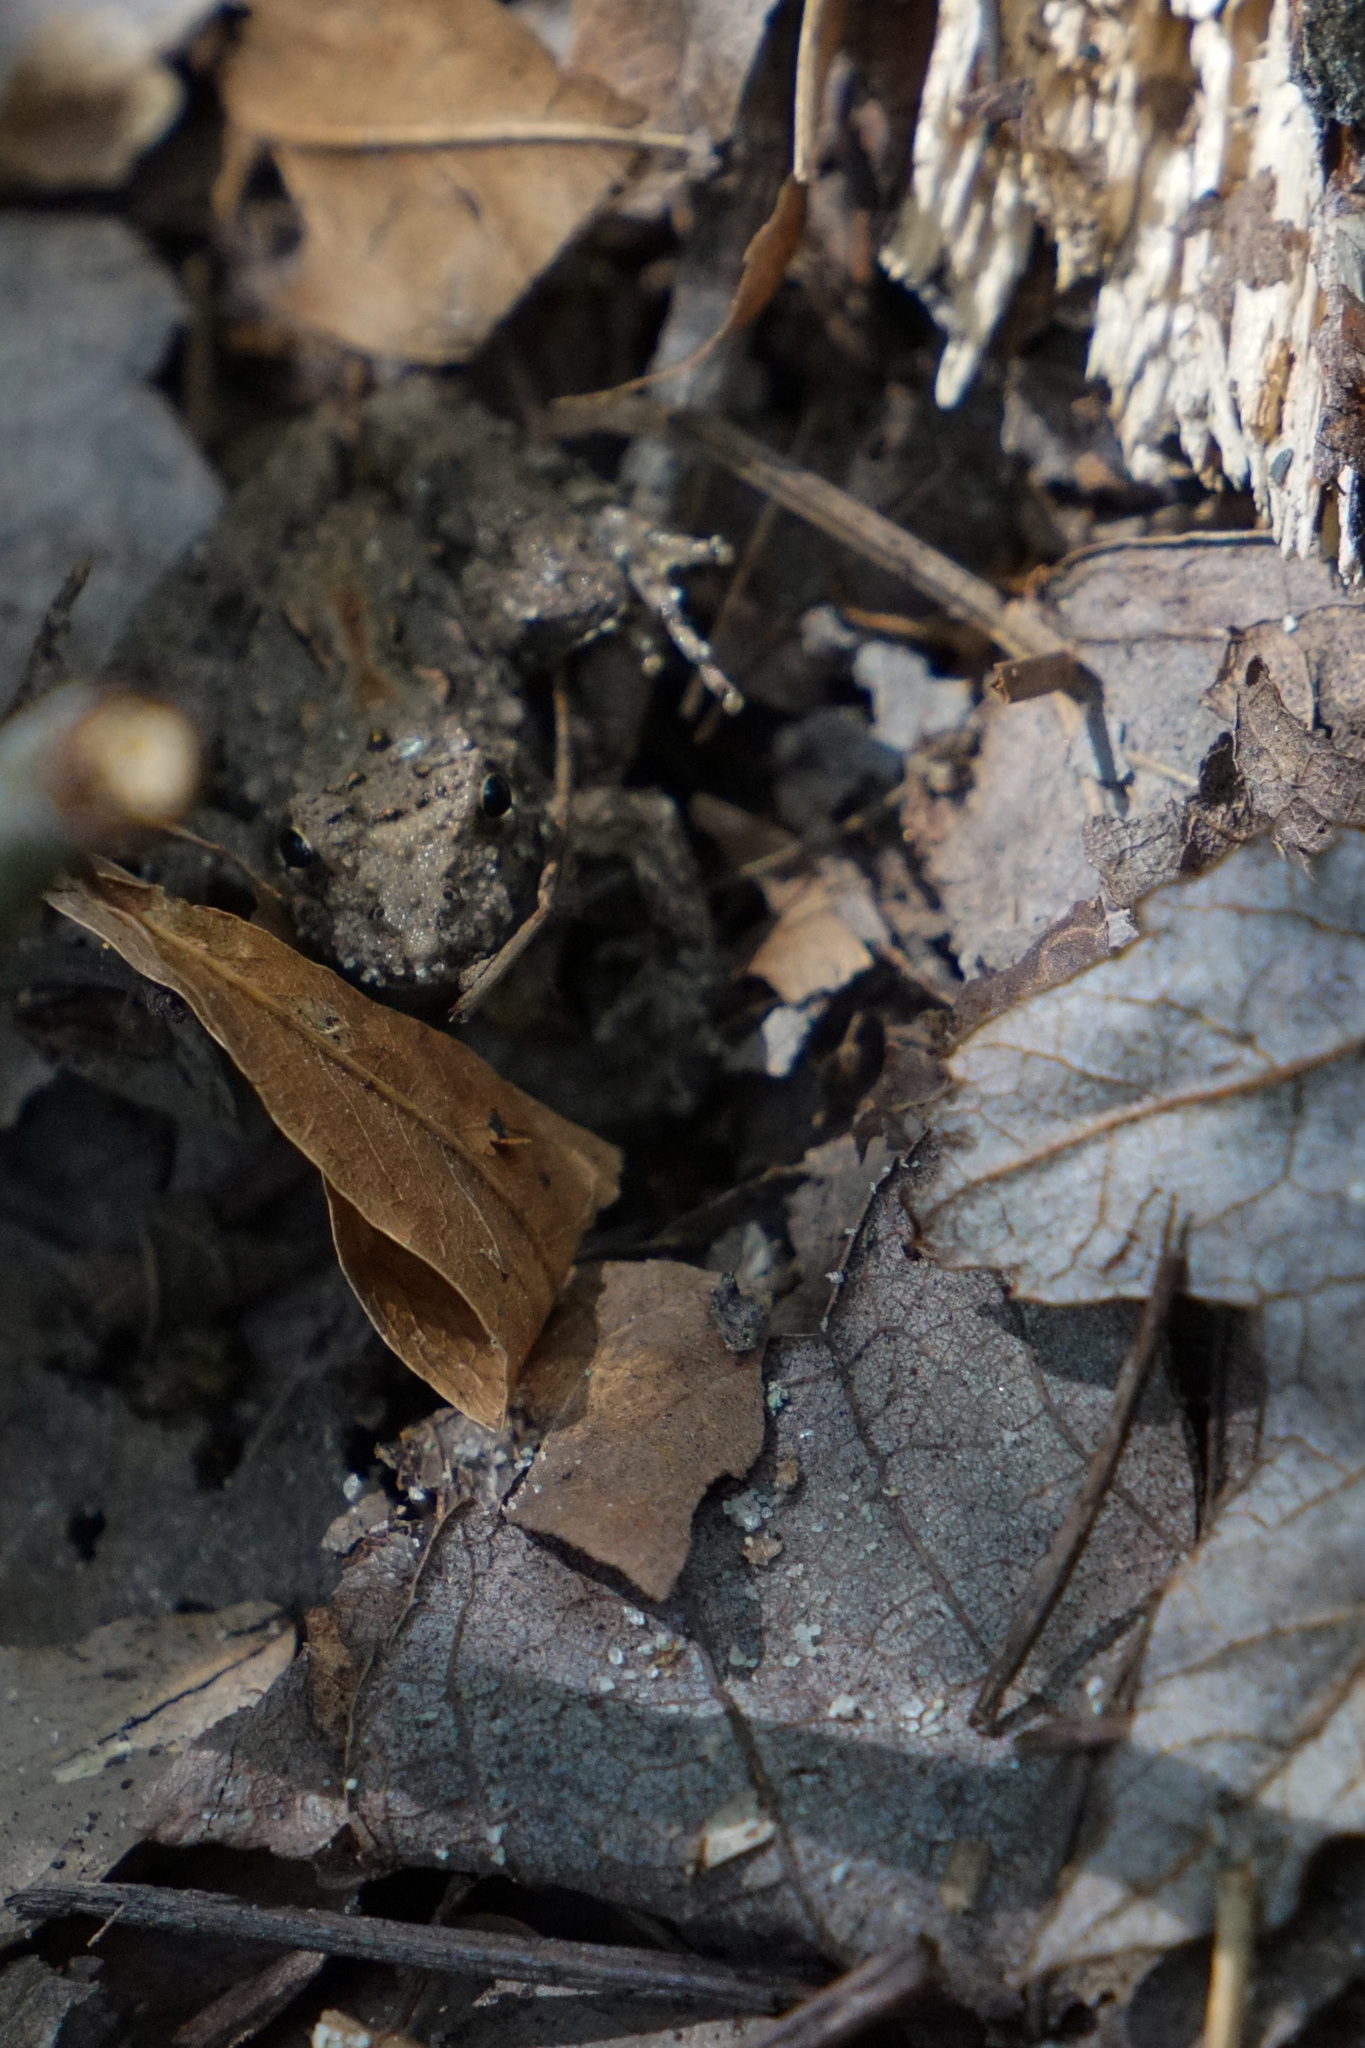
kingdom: Animalia
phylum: Chordata
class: Amphibia
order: Anura
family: Hylidae
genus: Acris
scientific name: Acris crepitans
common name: Northern cricket frog
